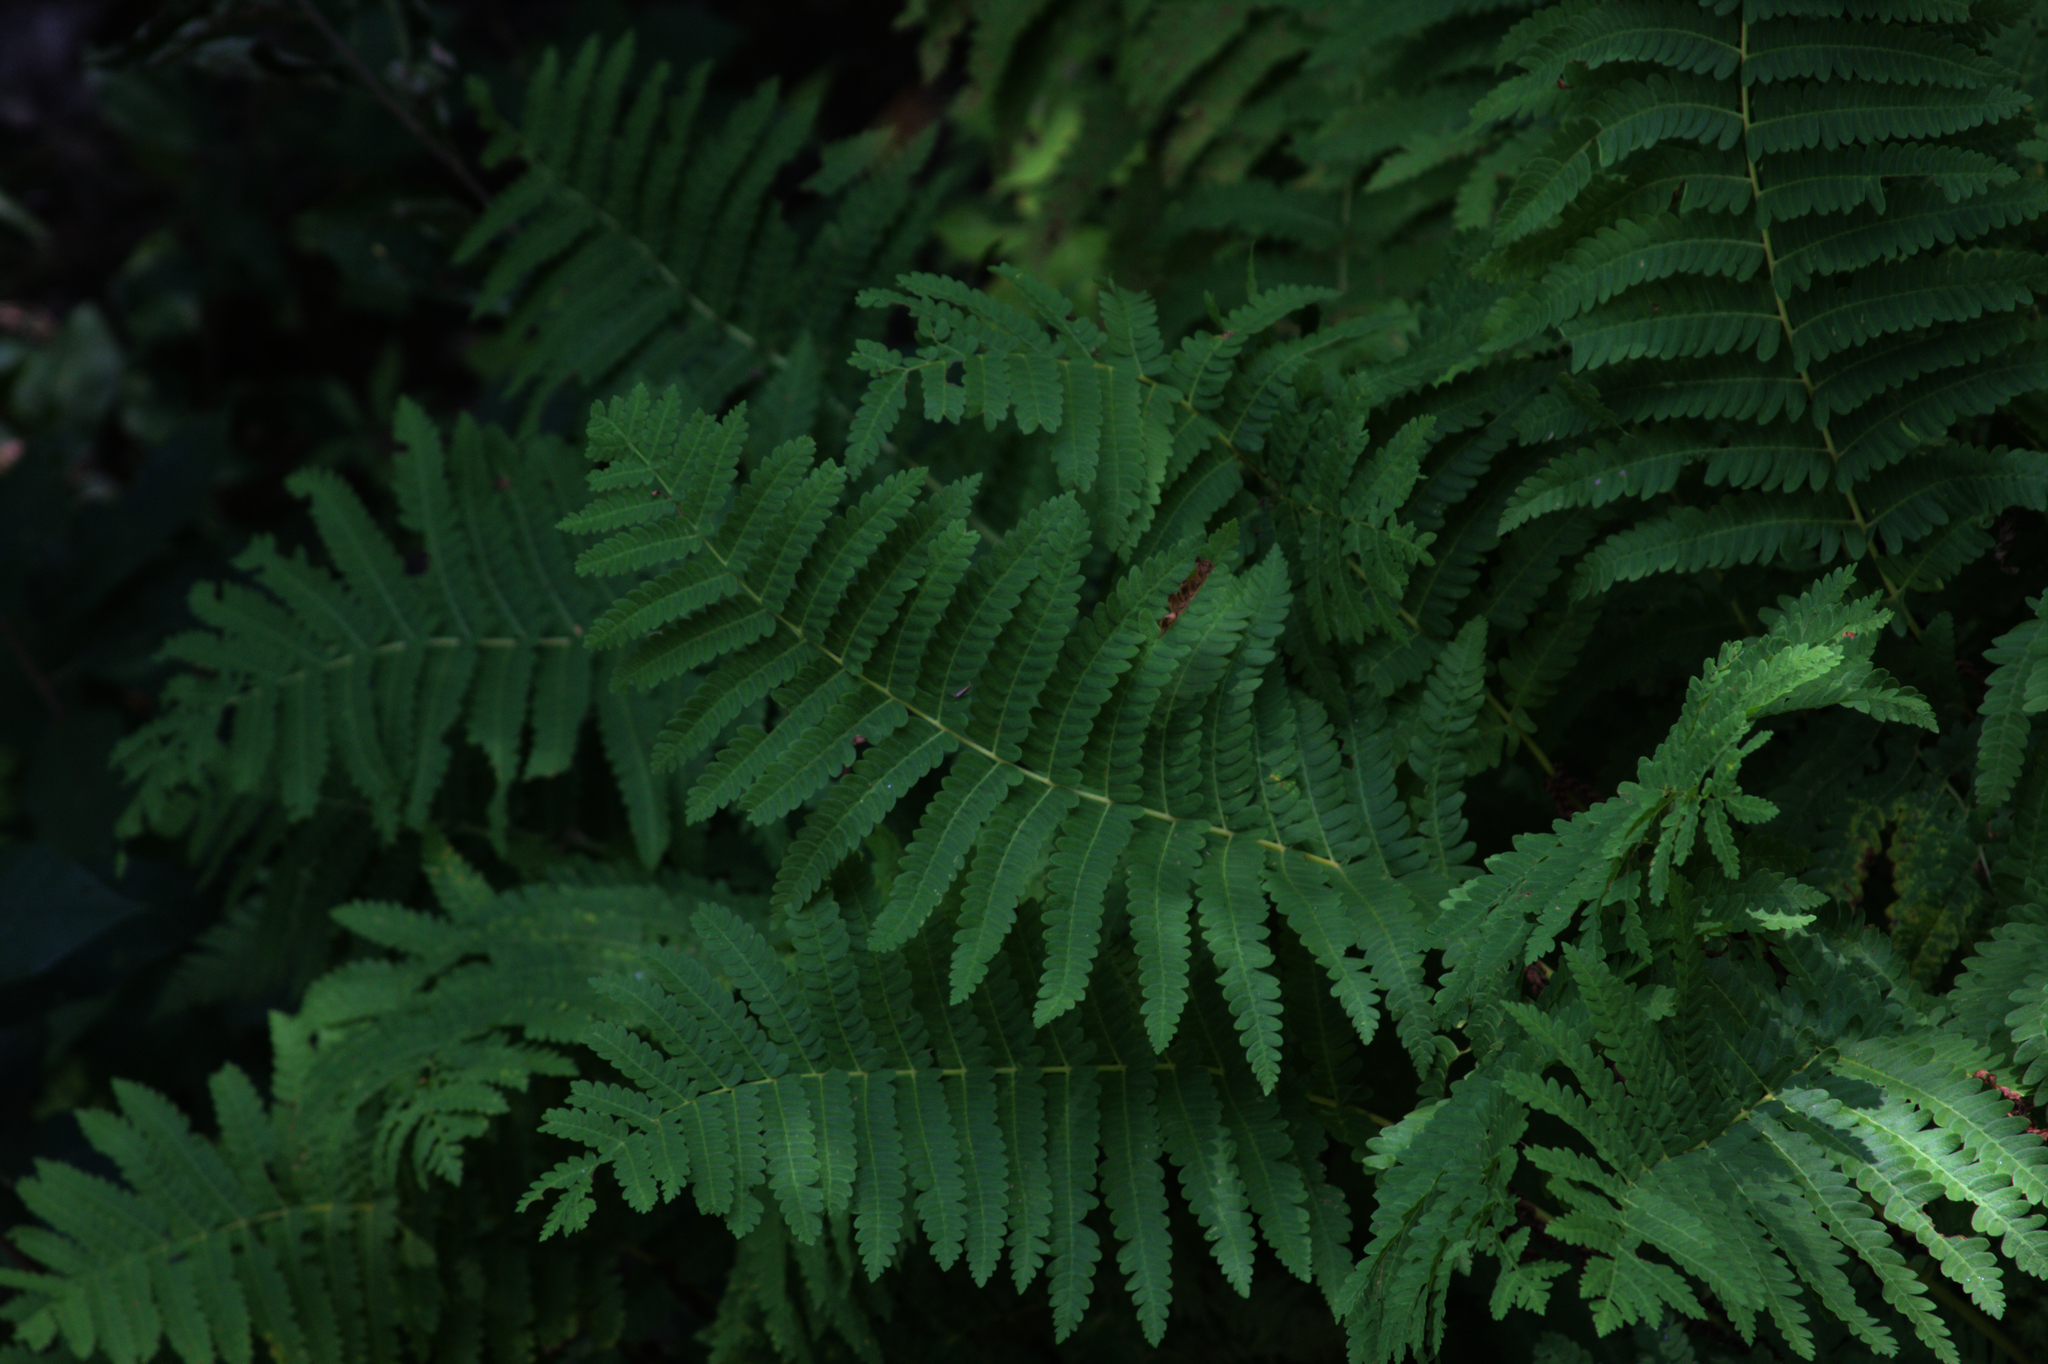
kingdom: Plantae
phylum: Tracheophyta
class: Polypodiopsida
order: Osmundales
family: Osmundaceae
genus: Claytosmunda
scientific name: Claytosmunda claytoniana
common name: Clayton's fern
